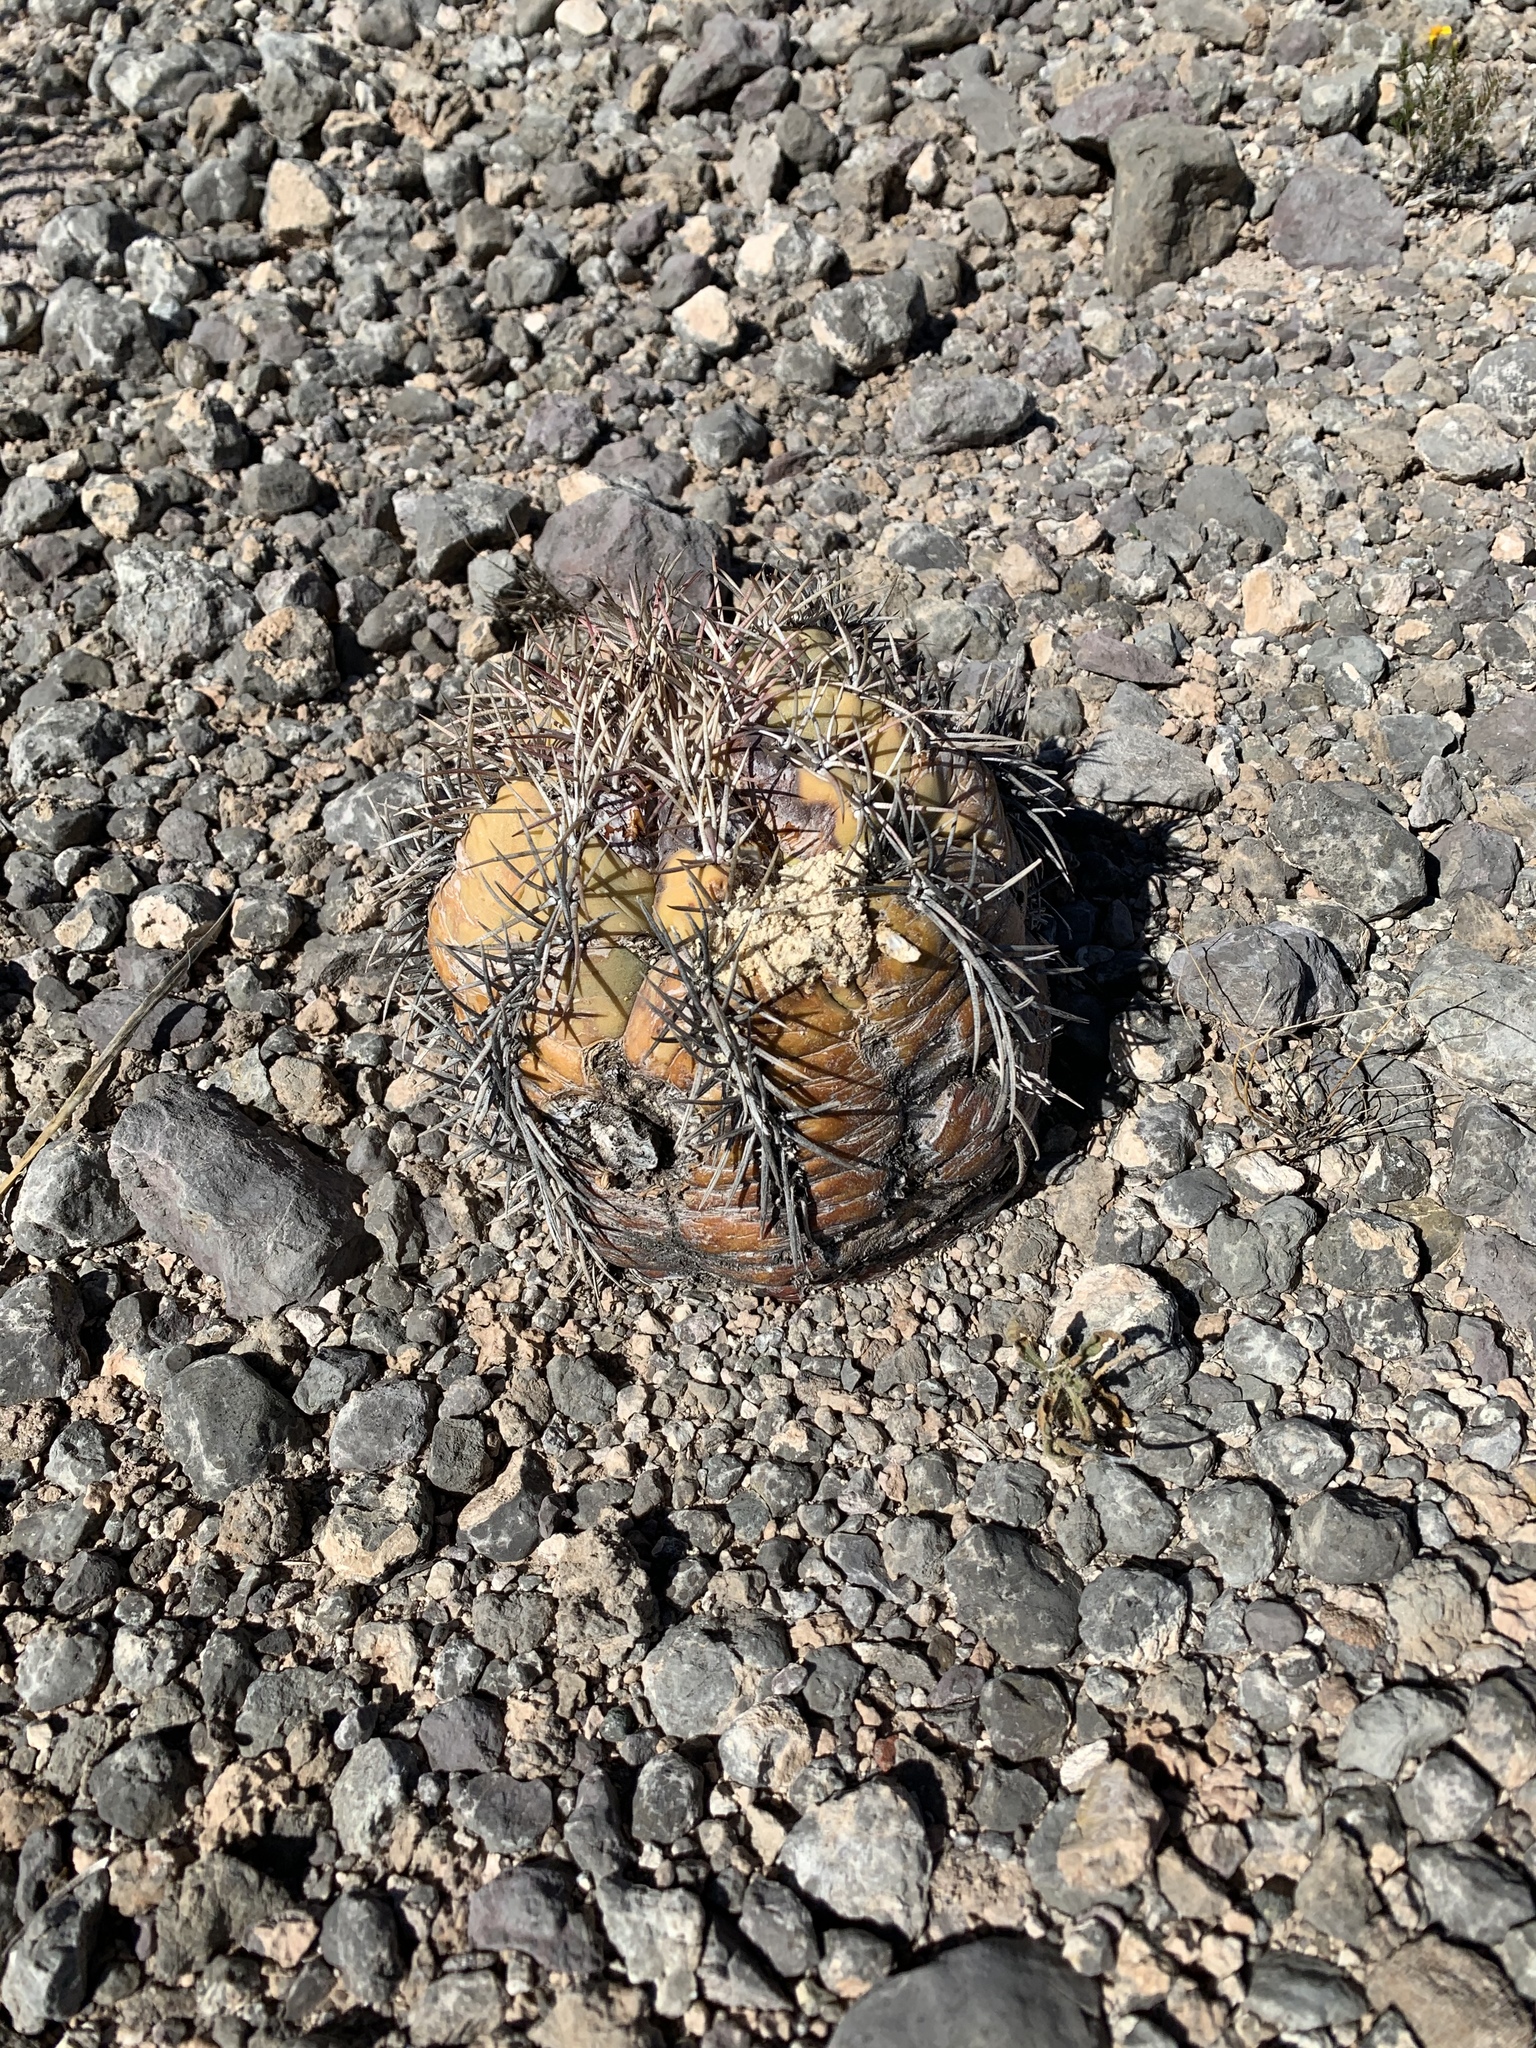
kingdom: Plantae
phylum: Tracheophyta
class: Magnoliopsida
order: Caryophyllales
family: Cactaceae
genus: Echinocactus
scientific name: Echinocactus horizonthalonius
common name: Devilshead
